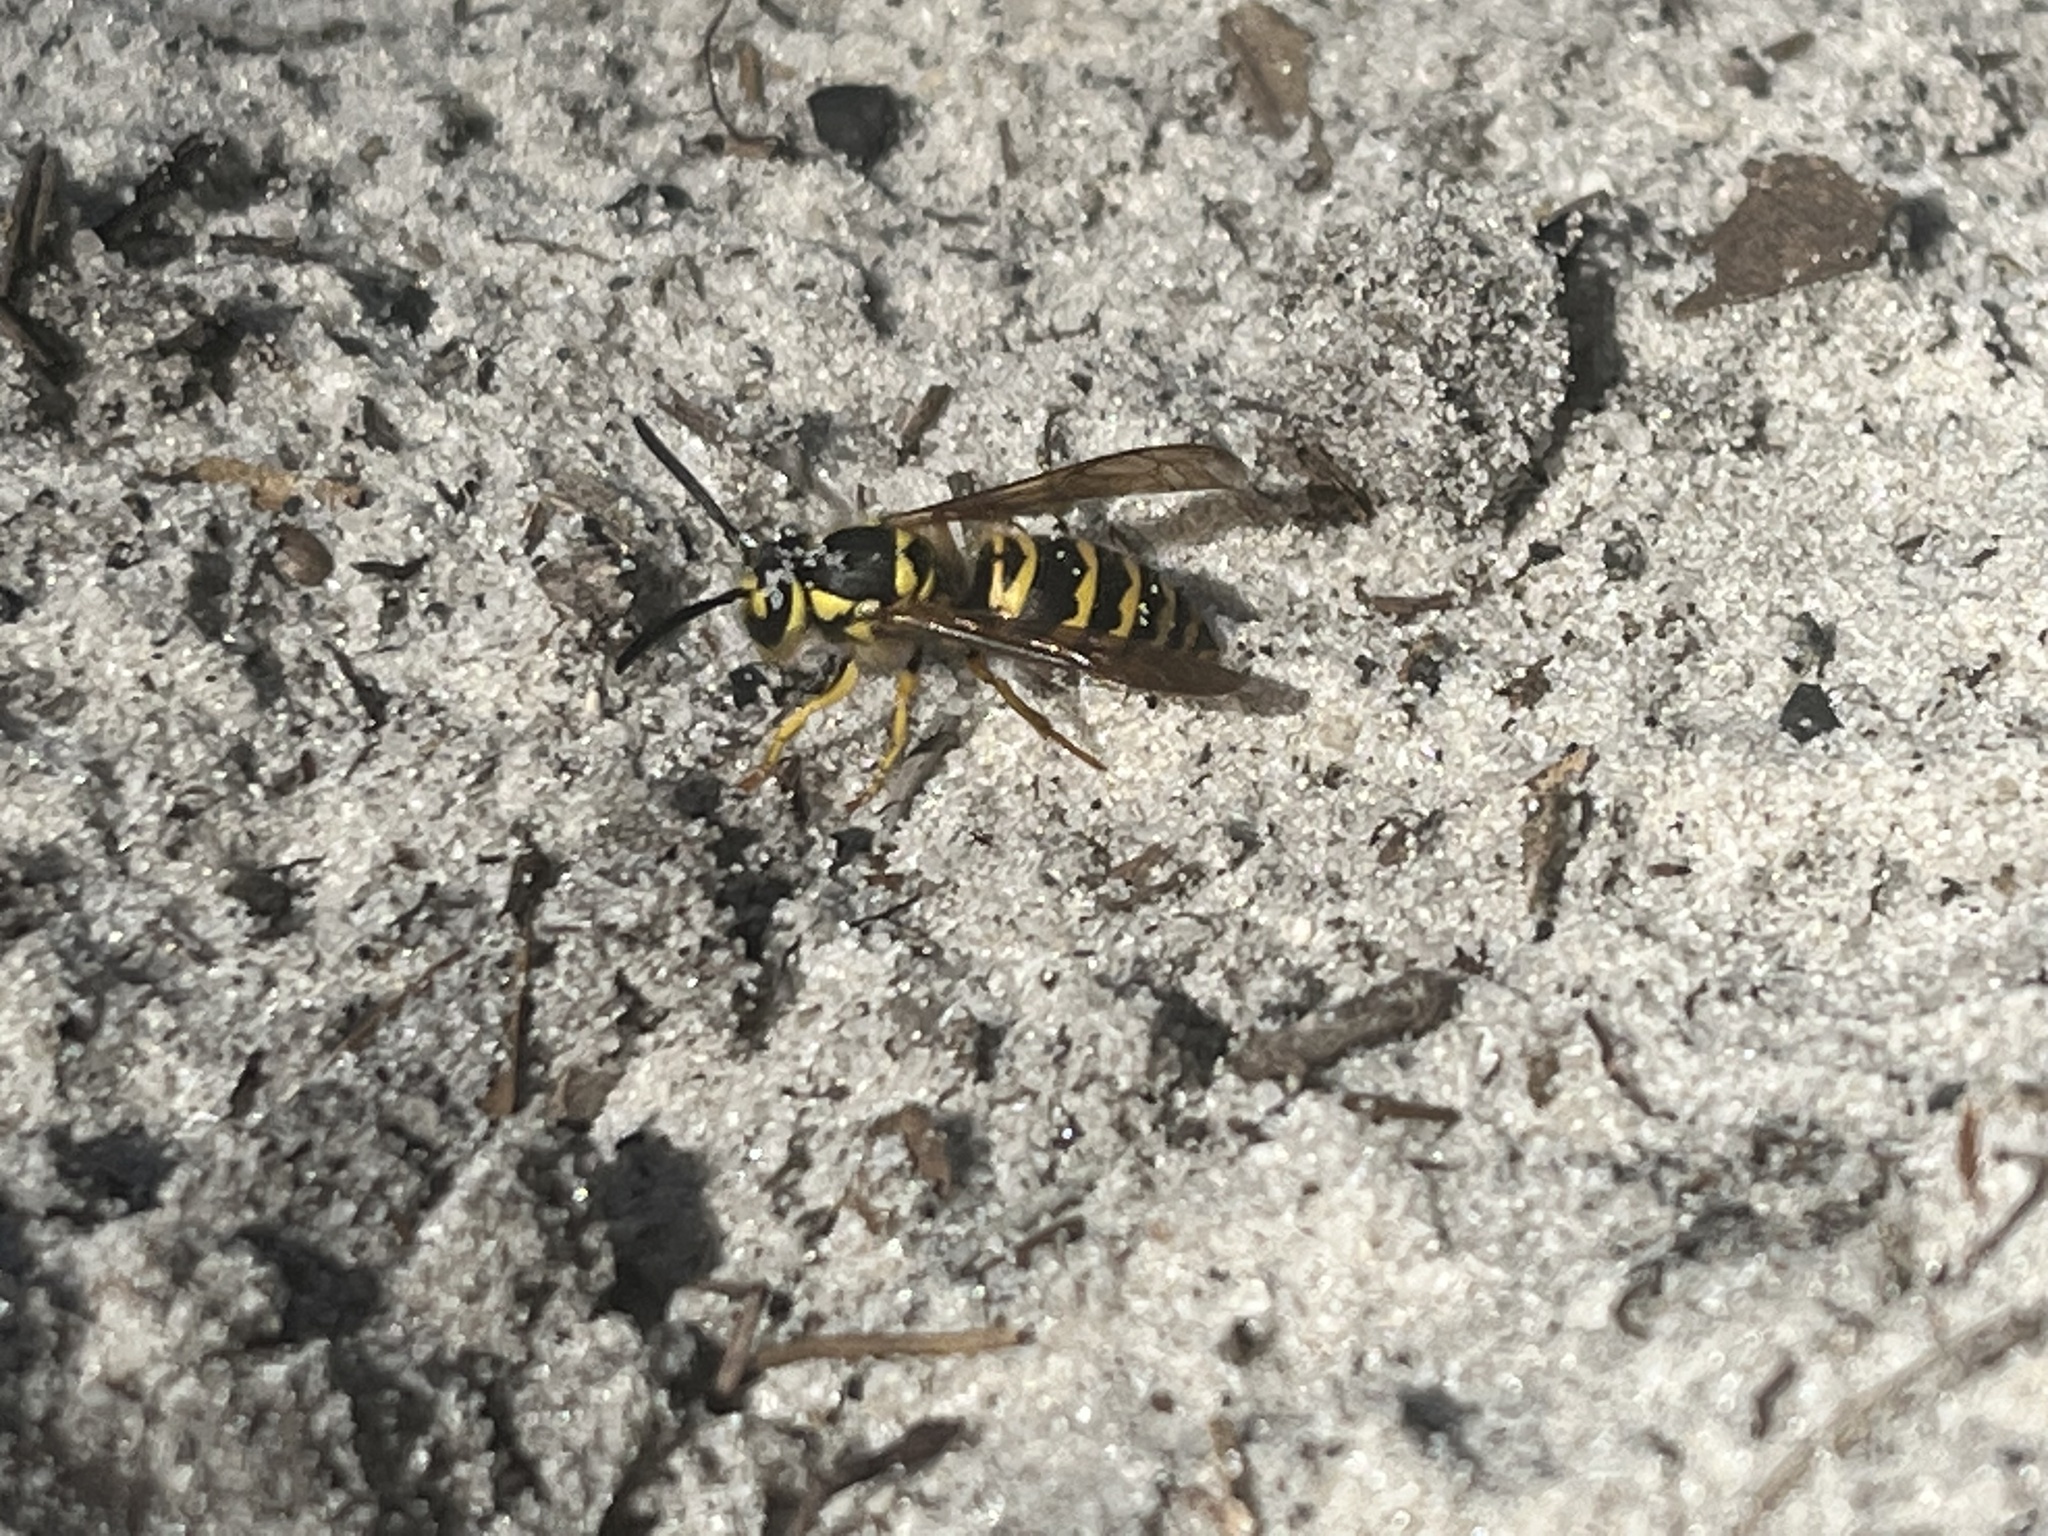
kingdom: Animalia
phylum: Arthropoda
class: Insecta
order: Hymenoptera
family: Vespidae
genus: Vespula
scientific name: Vespula maculifrons
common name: Eastern yellowjacket
